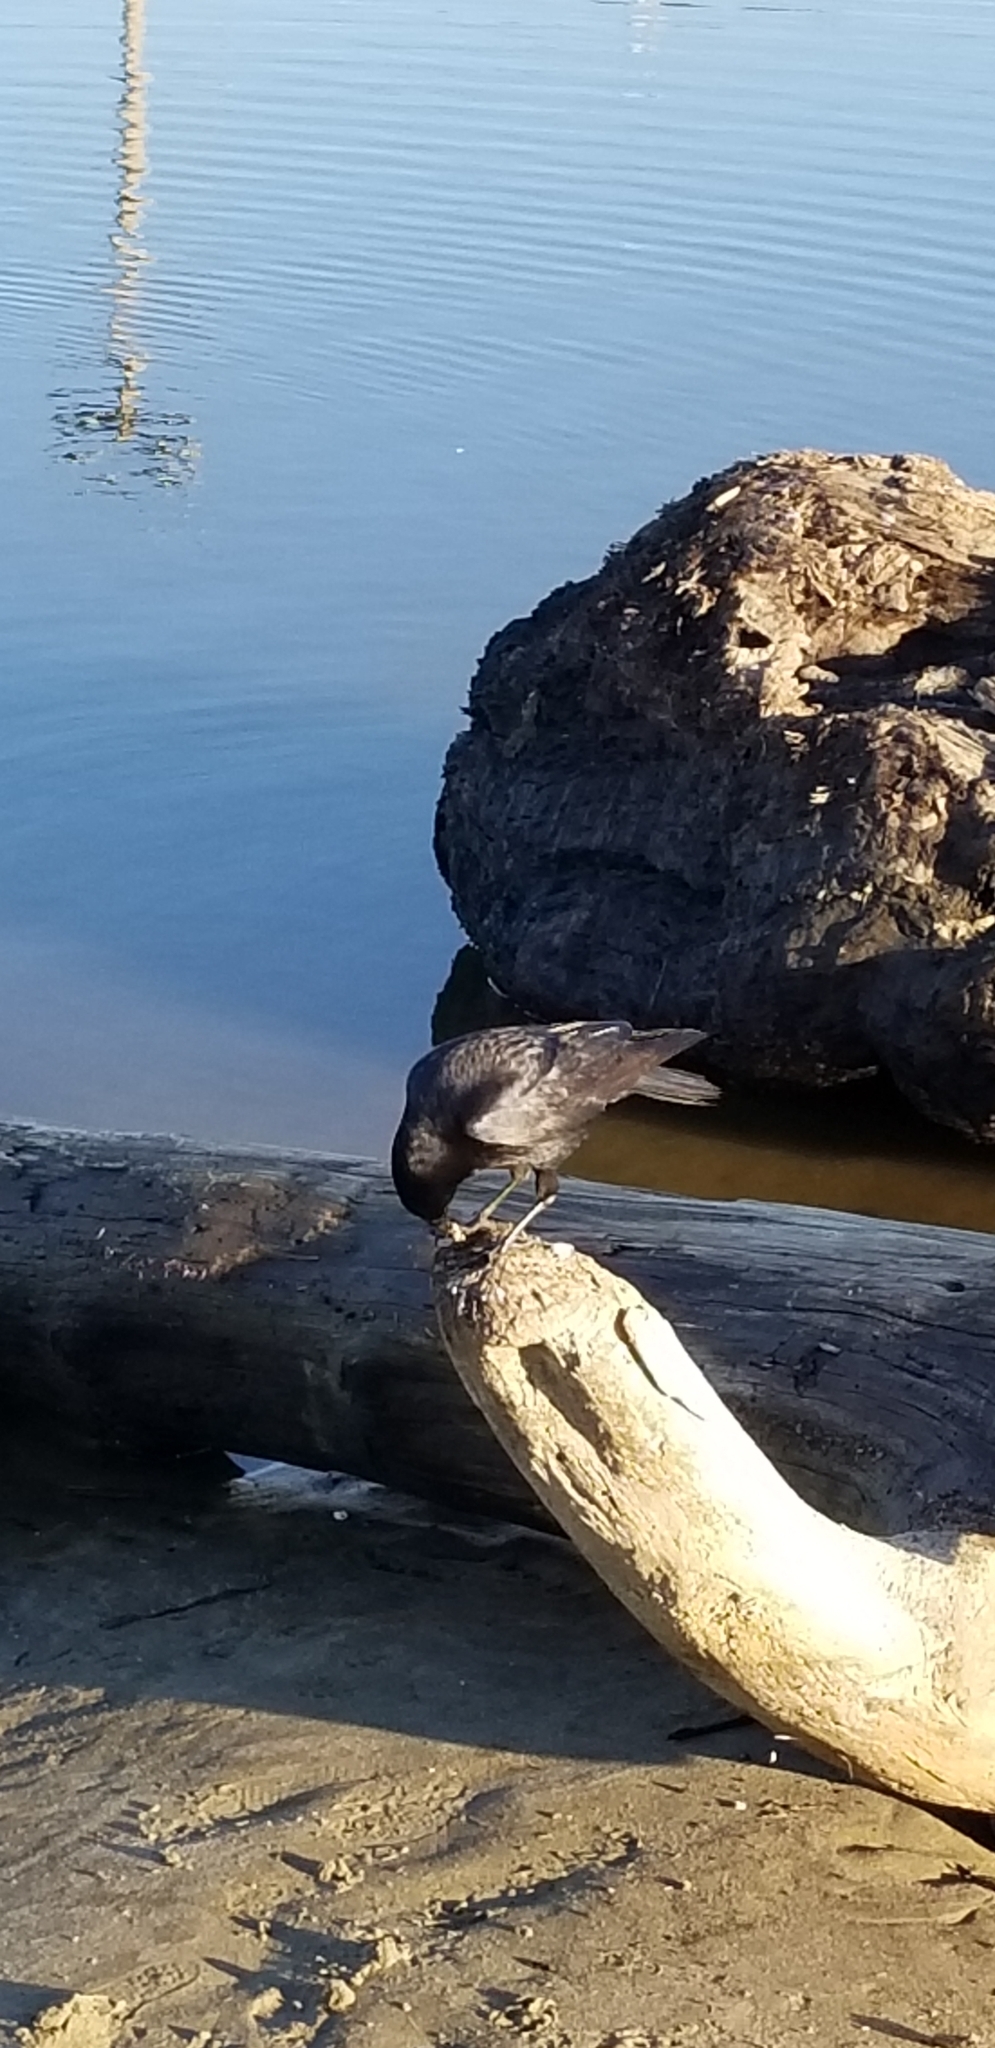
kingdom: Animalia
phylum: Chordata
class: Aves
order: Passeriformes
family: Corvidae
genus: Corvus
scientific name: Corvus brachyrhynchos
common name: American crow
